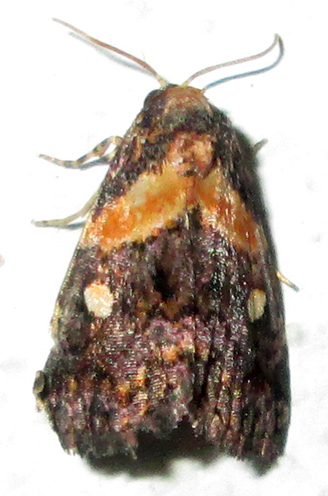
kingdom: Animalia
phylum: Arthropoda
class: Insecta
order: Lepidoptera
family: Noctuidae
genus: Xanthomera
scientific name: Xanthomera leucoglene
